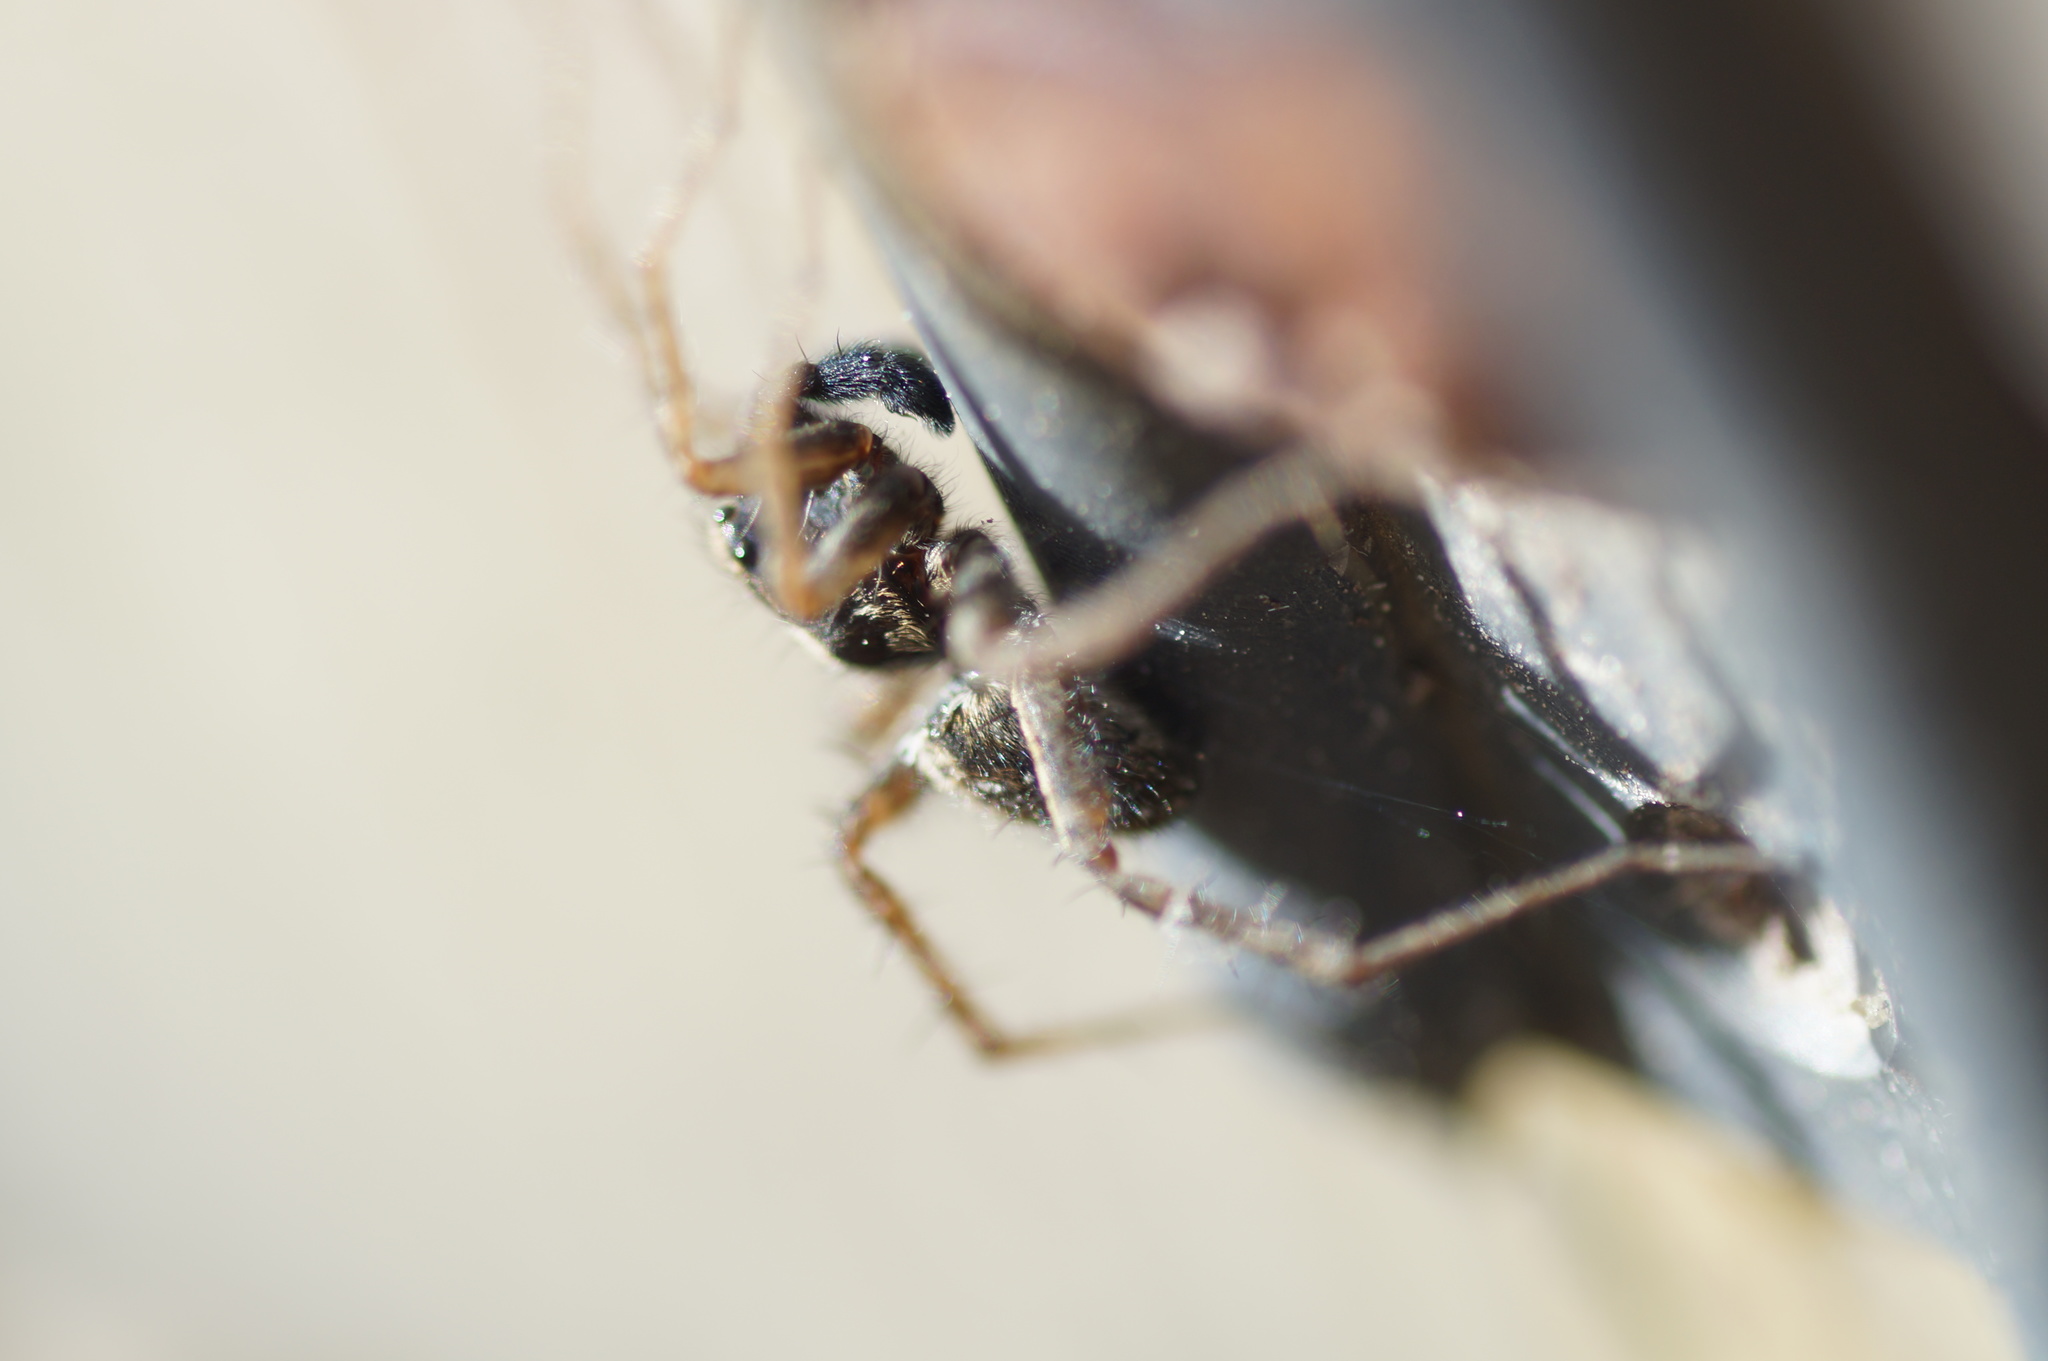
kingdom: Animalia
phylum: Arthropoda
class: Arachnida
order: Araneae
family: Lycosidae
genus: Pardosa
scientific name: Pardosa amentata
